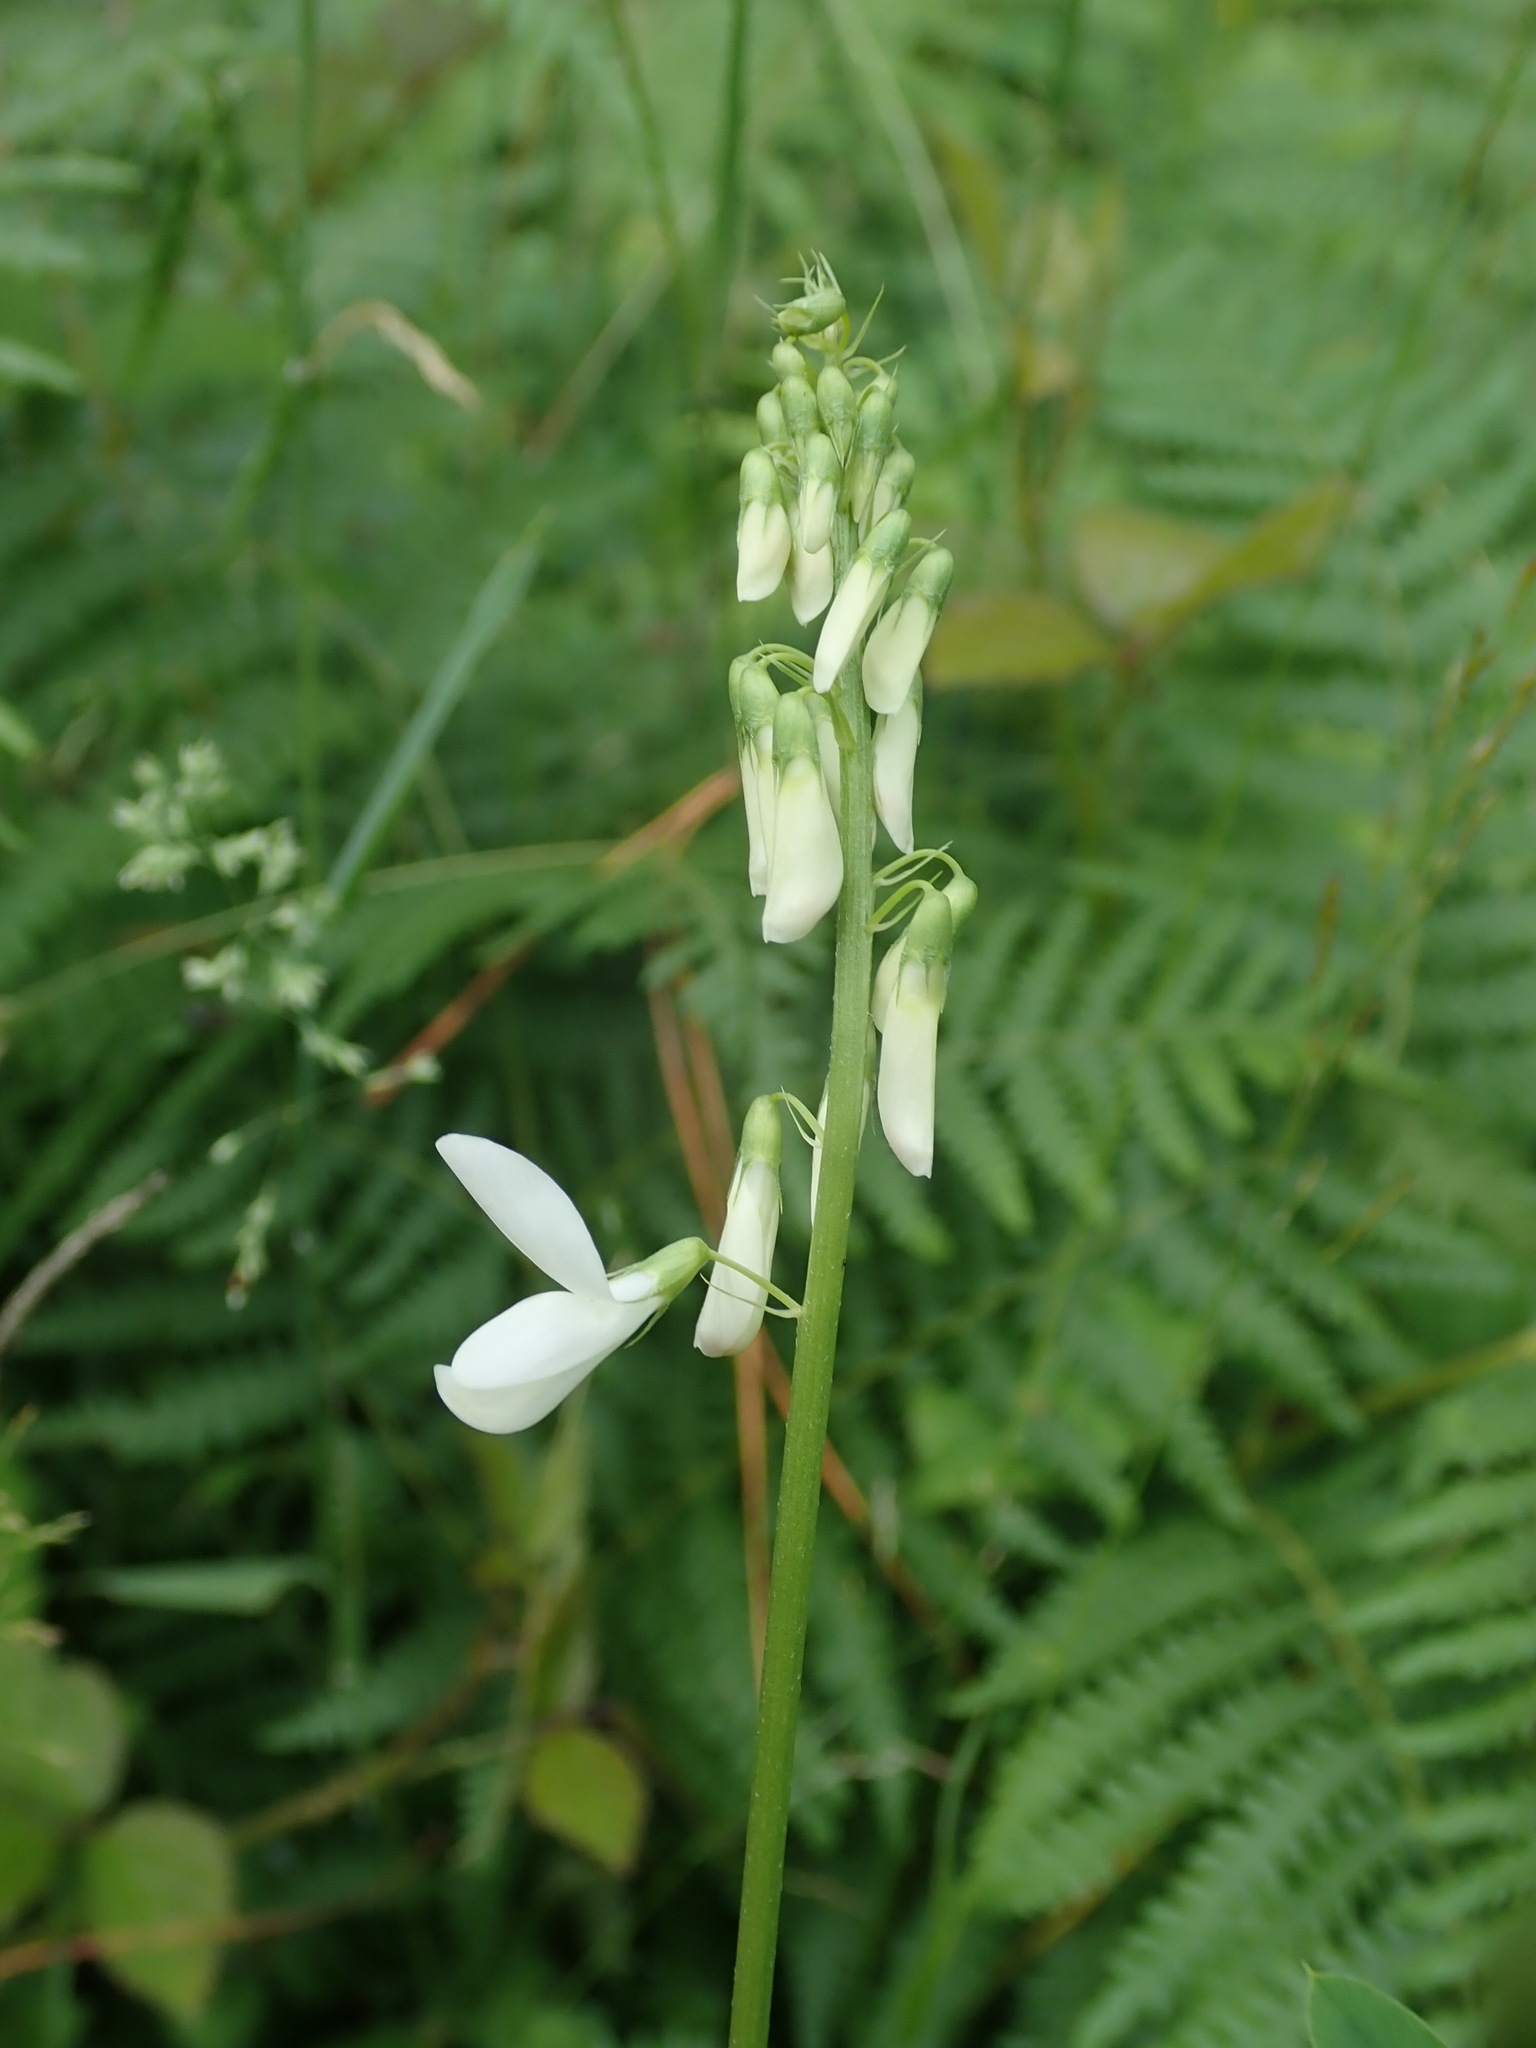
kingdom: Plantae
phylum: Tracheophyta
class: Magnoliopsida
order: Fabales
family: Fabaceae
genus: Galega
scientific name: Galega officinalis
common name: Goat's-rue
